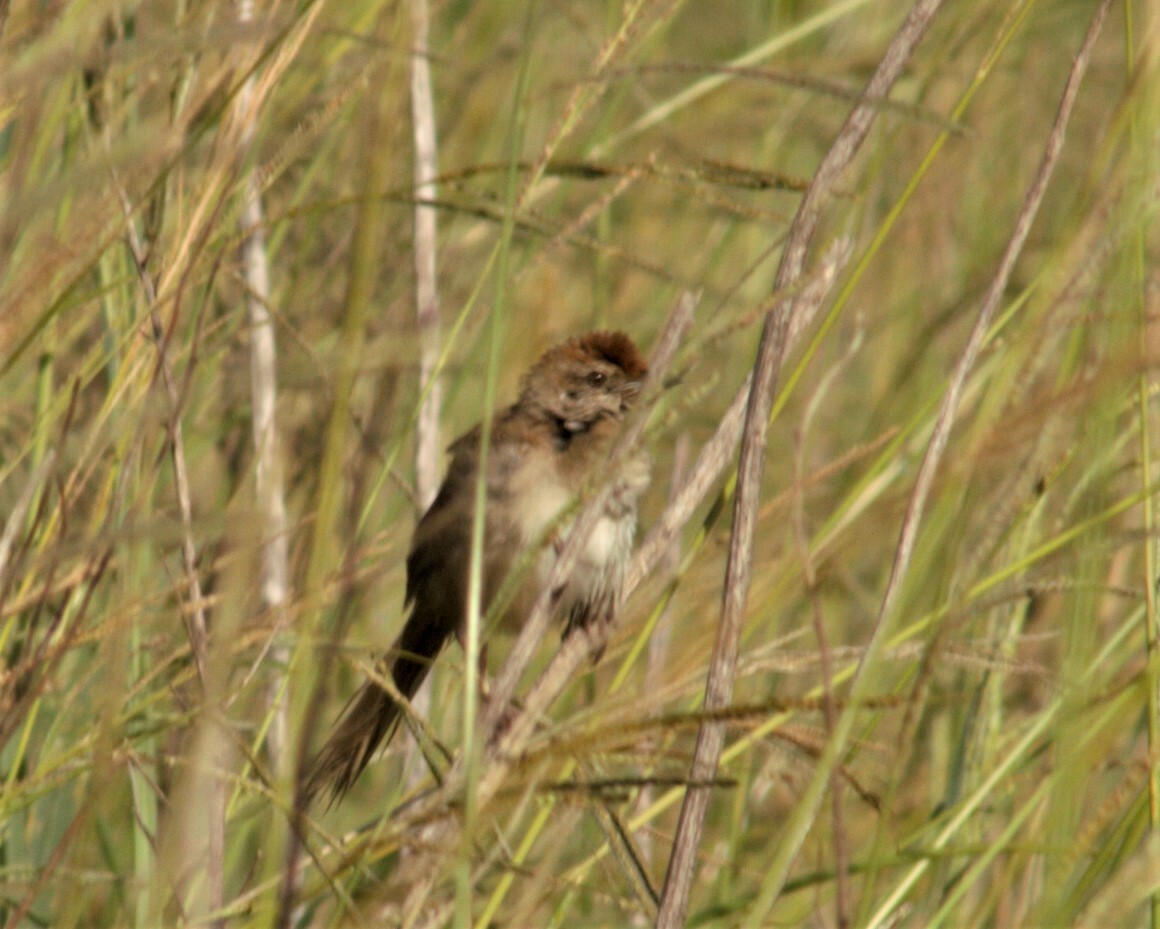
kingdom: Animalia
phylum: Chordata
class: Aves
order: Passeriformes
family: Locustellidae
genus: Megalurus
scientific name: Megalurus timoriensis
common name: Tawny grassbird
